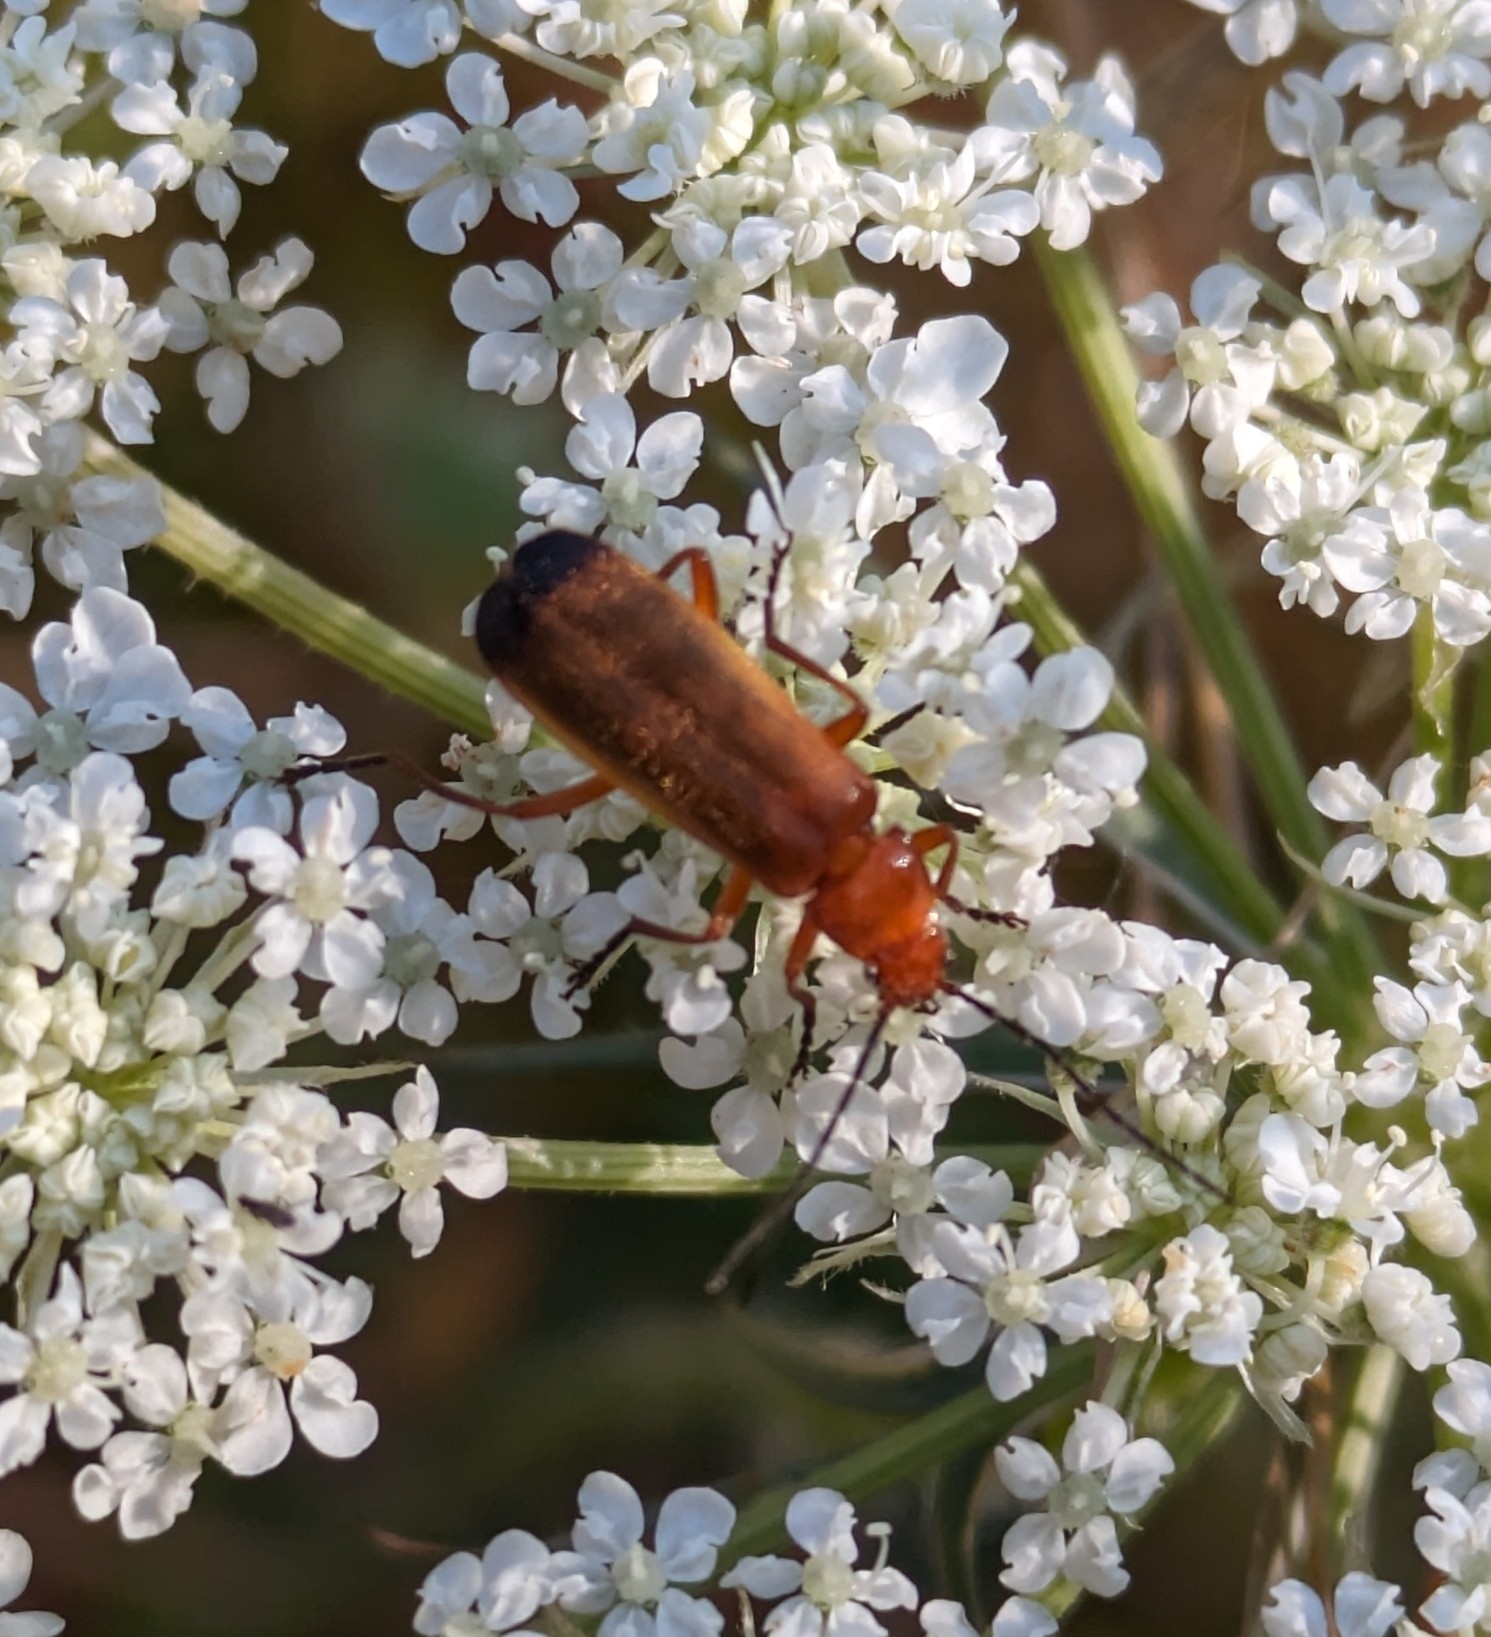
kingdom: Animalia
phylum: Arthropoda
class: Insecta
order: Coleoptera
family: Cantharidae
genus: Rhagonycha
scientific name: Rhagonycha fulva
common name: Common red soldier beetle
